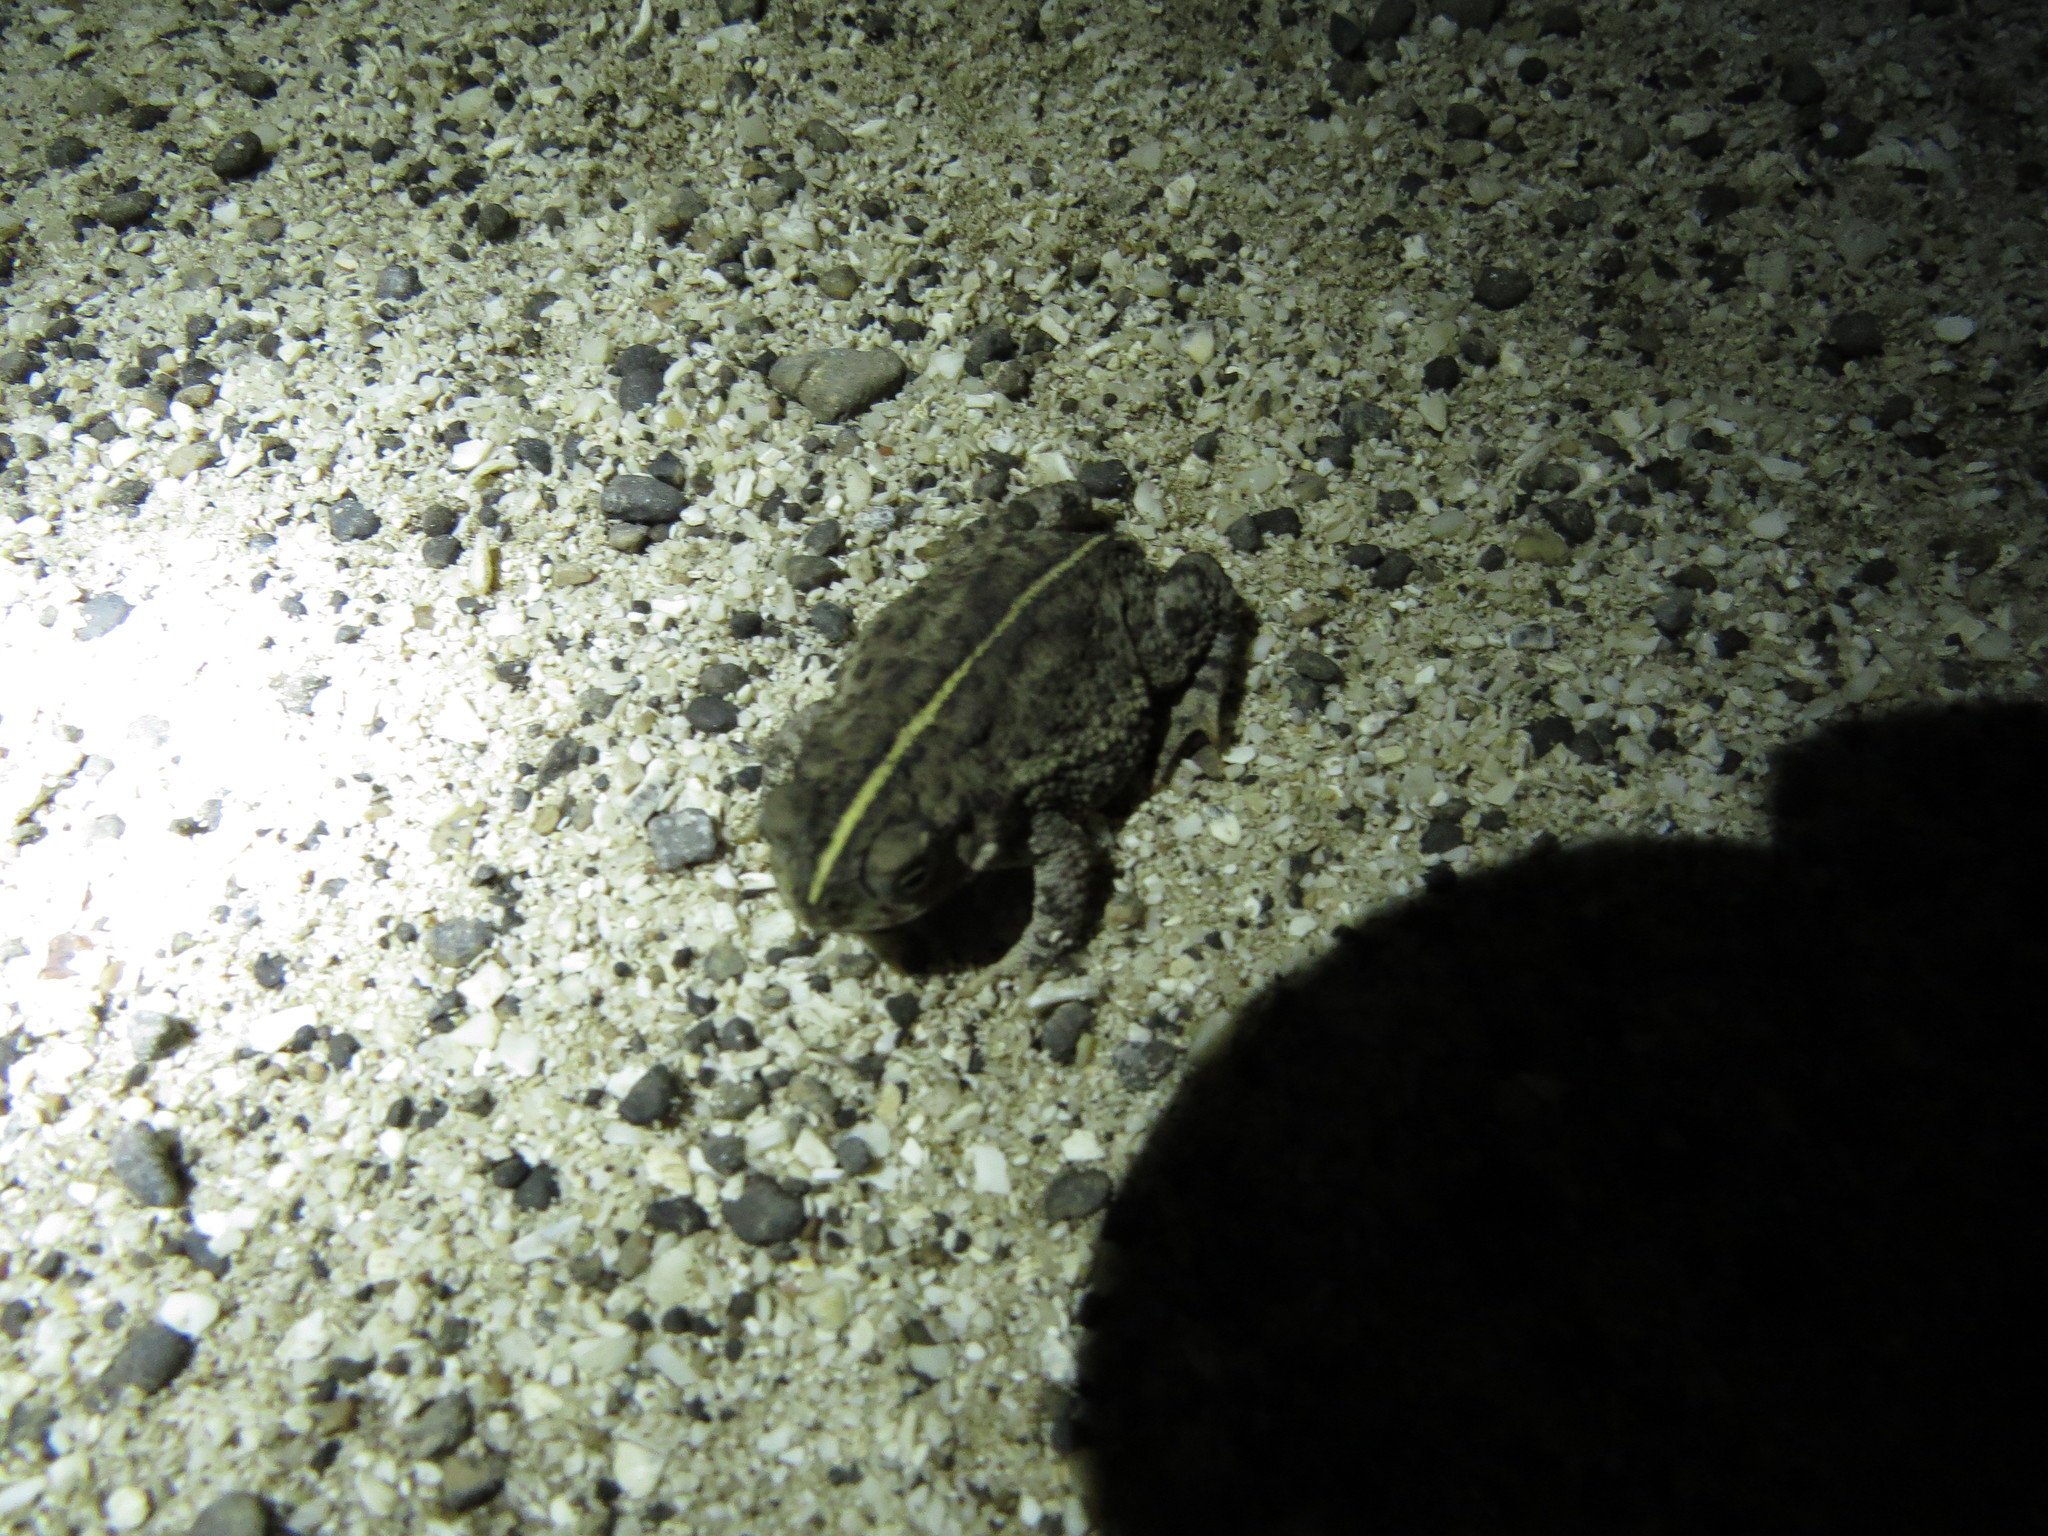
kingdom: Animalia
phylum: Chordata
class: Amphibia
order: Anura
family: Bufonidae
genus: Rhinella
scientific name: Rhinella dorbignyi
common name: D´orbigny’s toad
